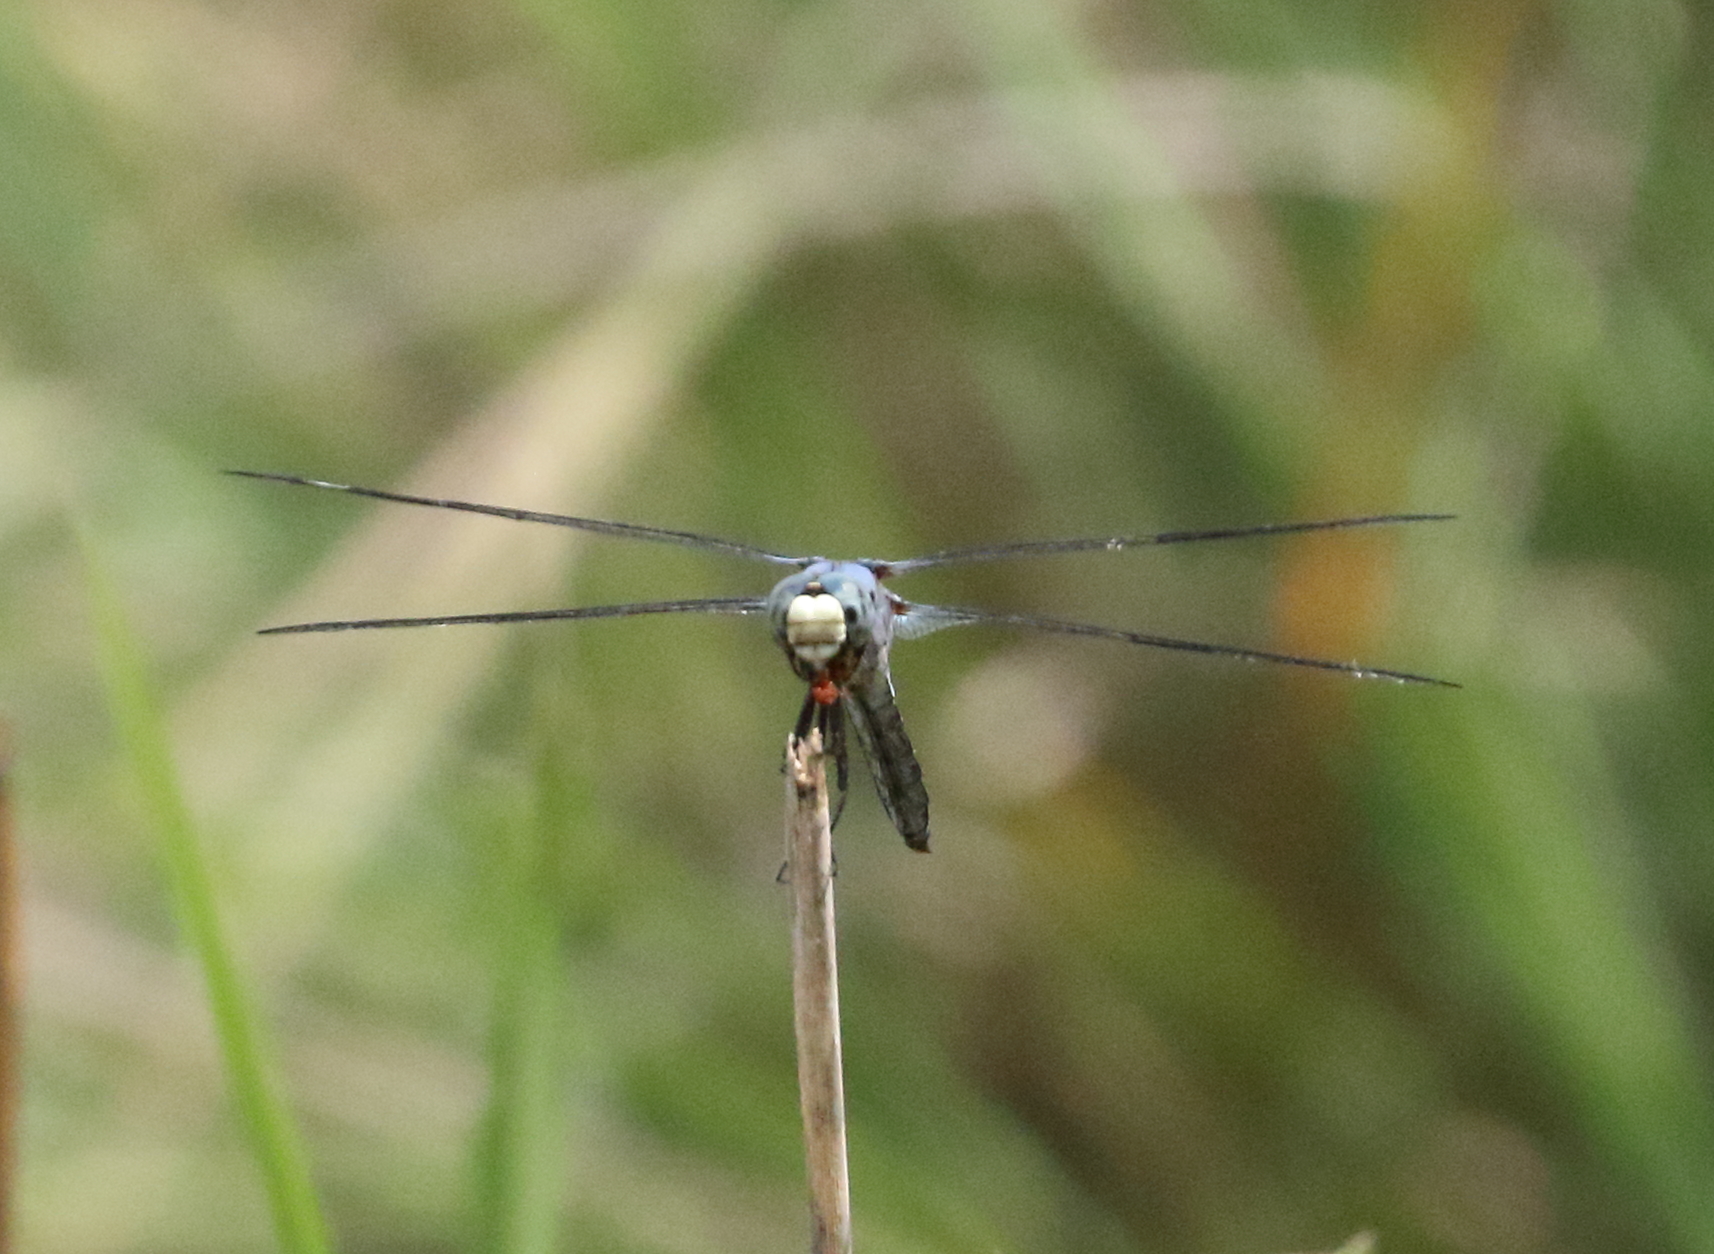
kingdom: Animalia
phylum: Arthropoda
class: Insecta
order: Odonata
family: Libellulidae
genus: Libellula
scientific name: Libellula comanche
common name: Comanche skimmer
